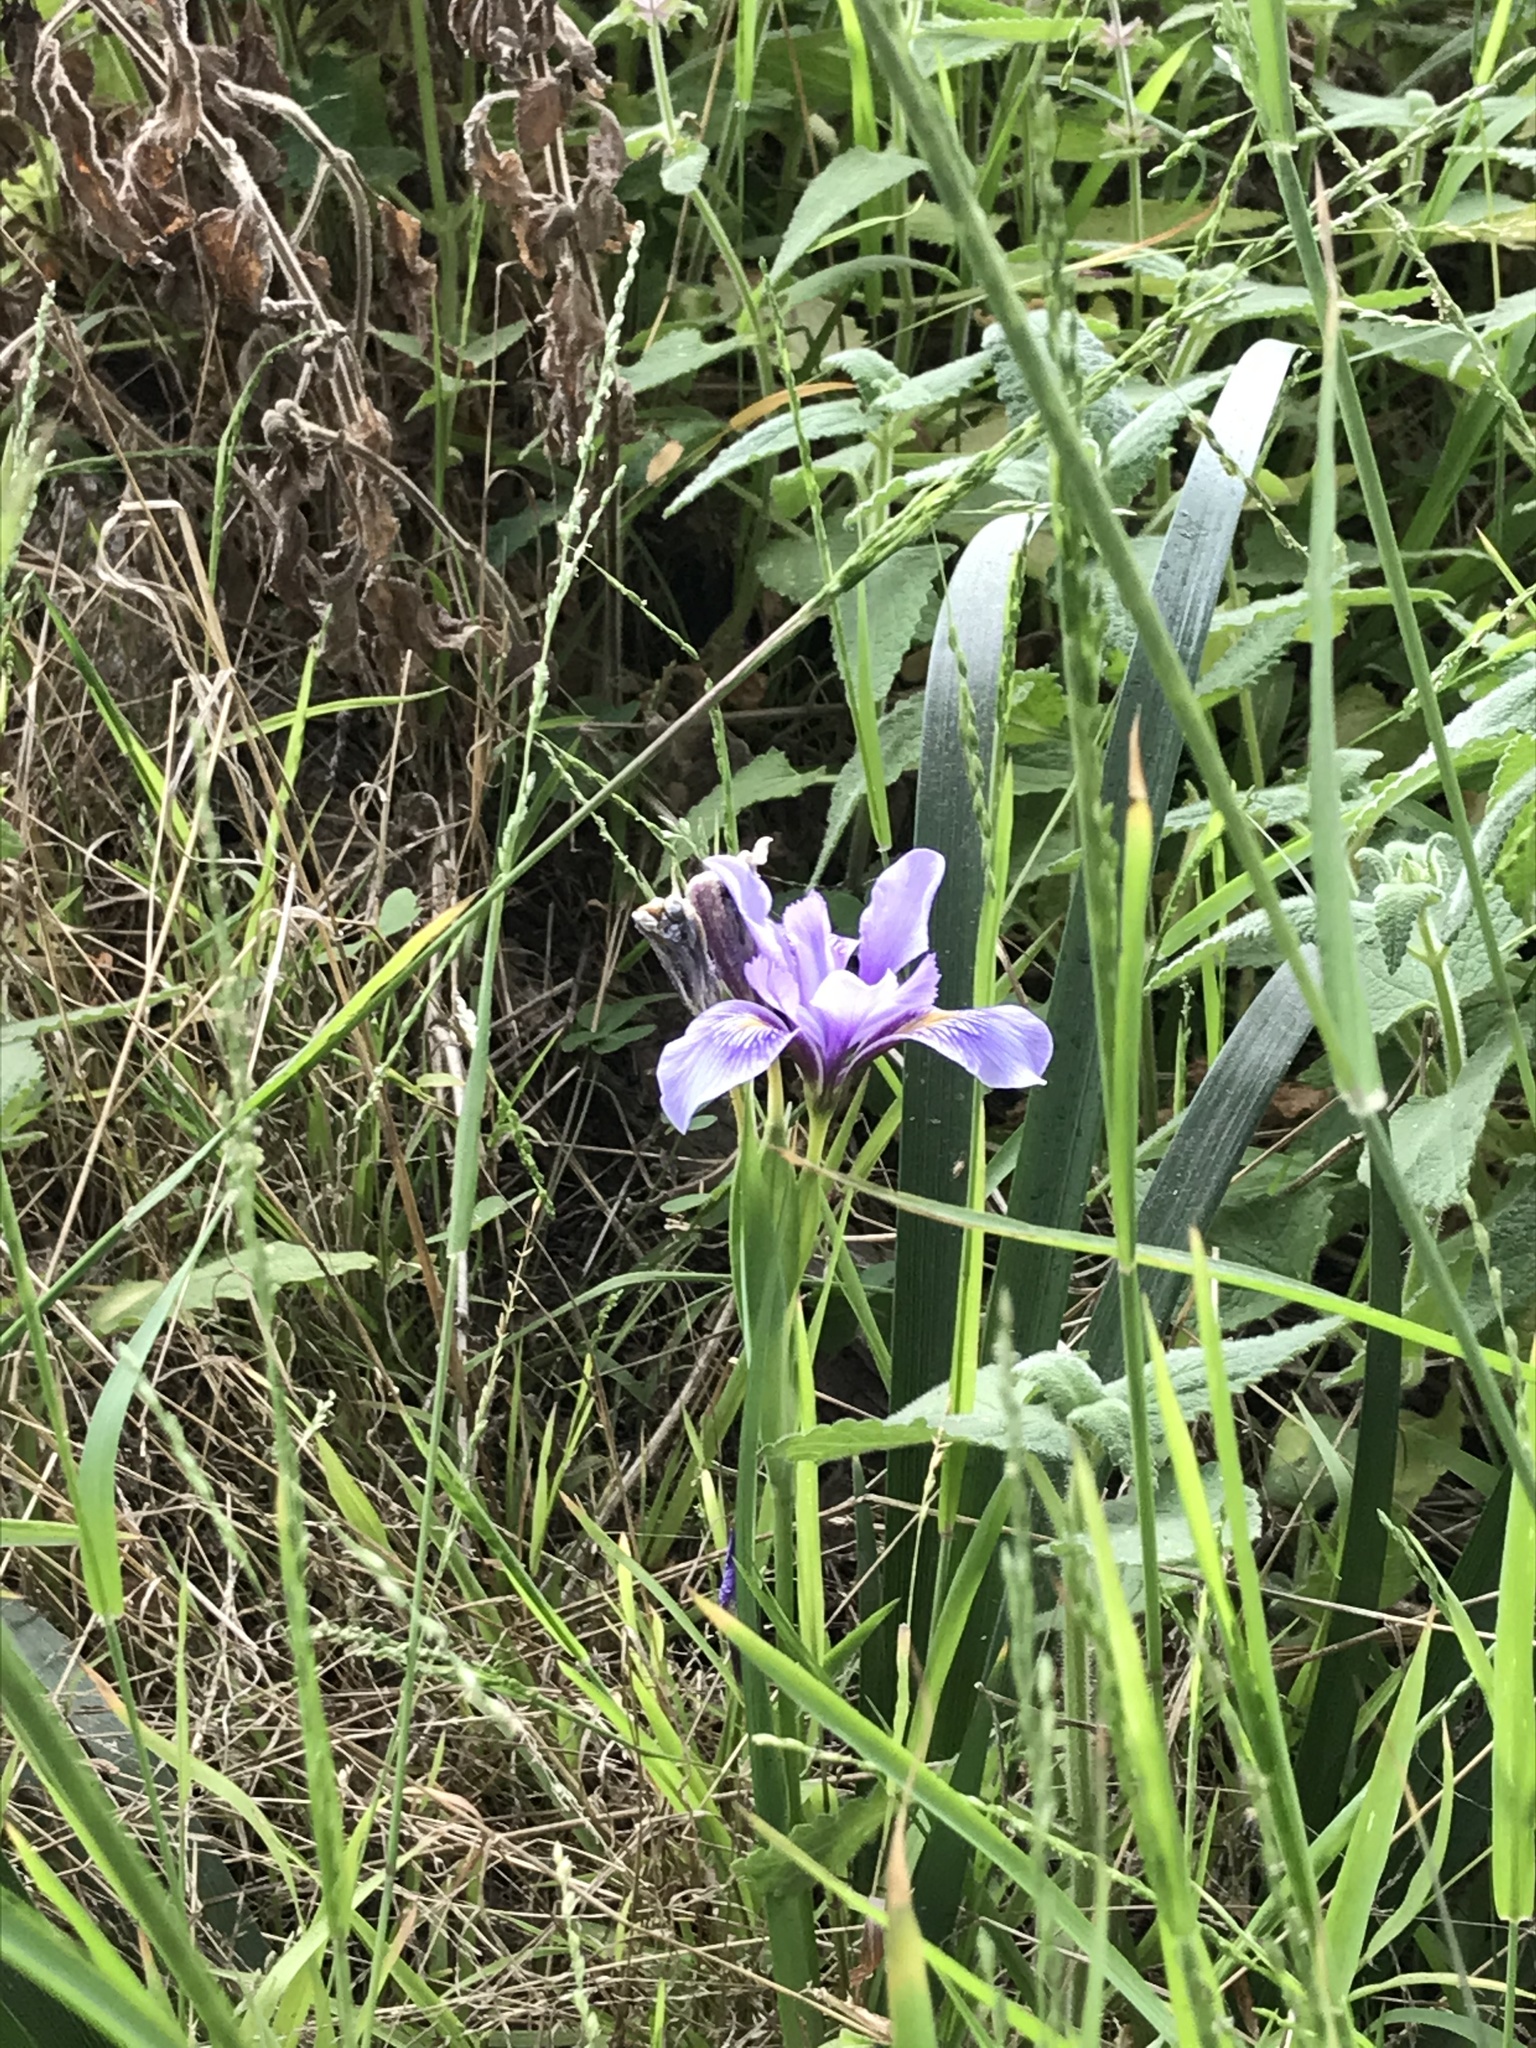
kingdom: Plantae
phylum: Tracheophyta
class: Liliopsida
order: Asparagales
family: Iridaceae
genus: Iris
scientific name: Iris douglasiana
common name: Marin iris
